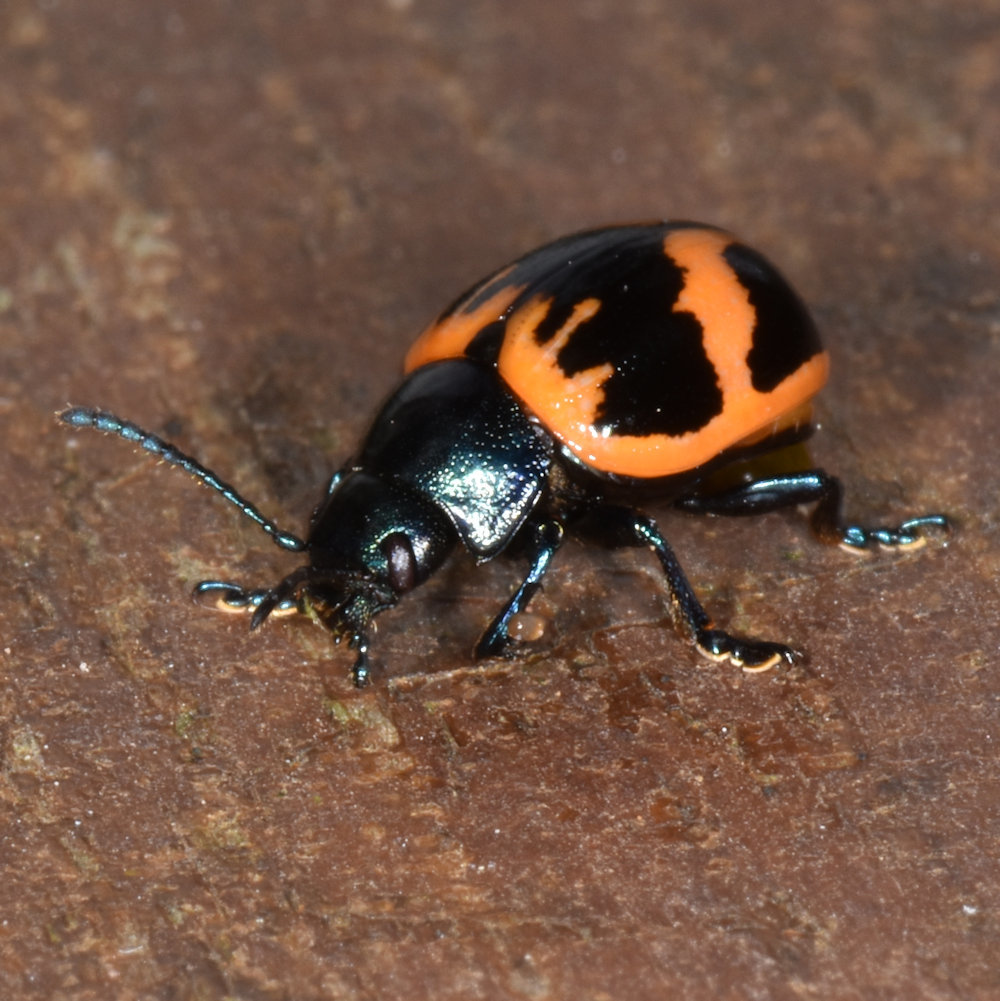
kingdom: Animalia
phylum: Arthropoda
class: Insecta
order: Coleoptera
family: Chrysomelidae
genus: Labidomera
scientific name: Labidomera clivicollis
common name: Swamp milkweed leaf beetle
